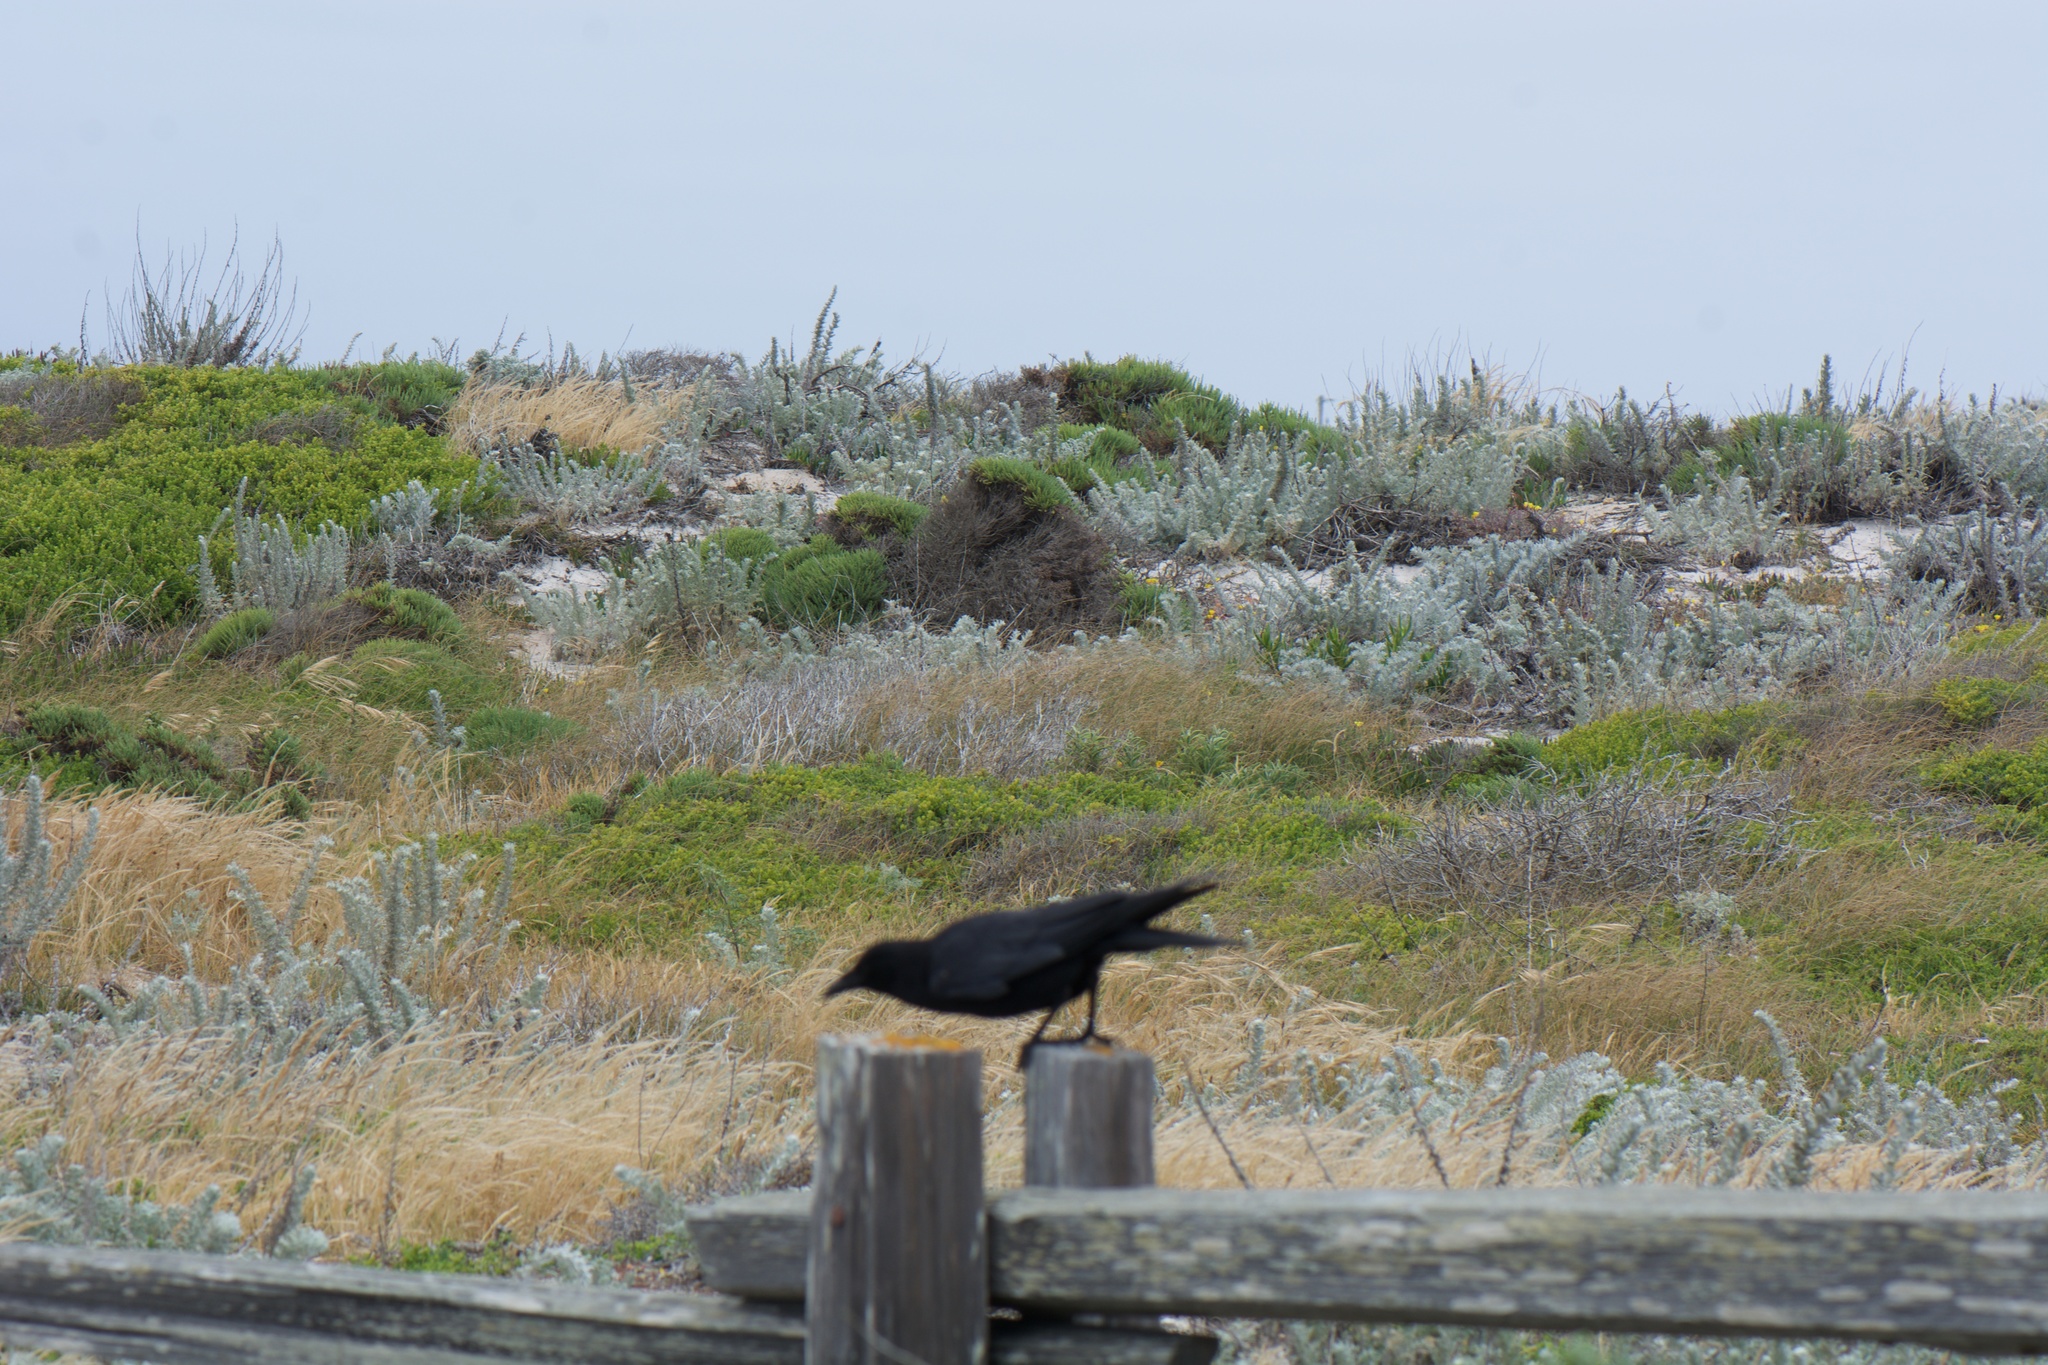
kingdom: Animalia
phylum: Chordata
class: Aves
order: Passeriformes
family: Corvidae
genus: Corvus
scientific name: Corvus brachyrhynchos
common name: American crow
